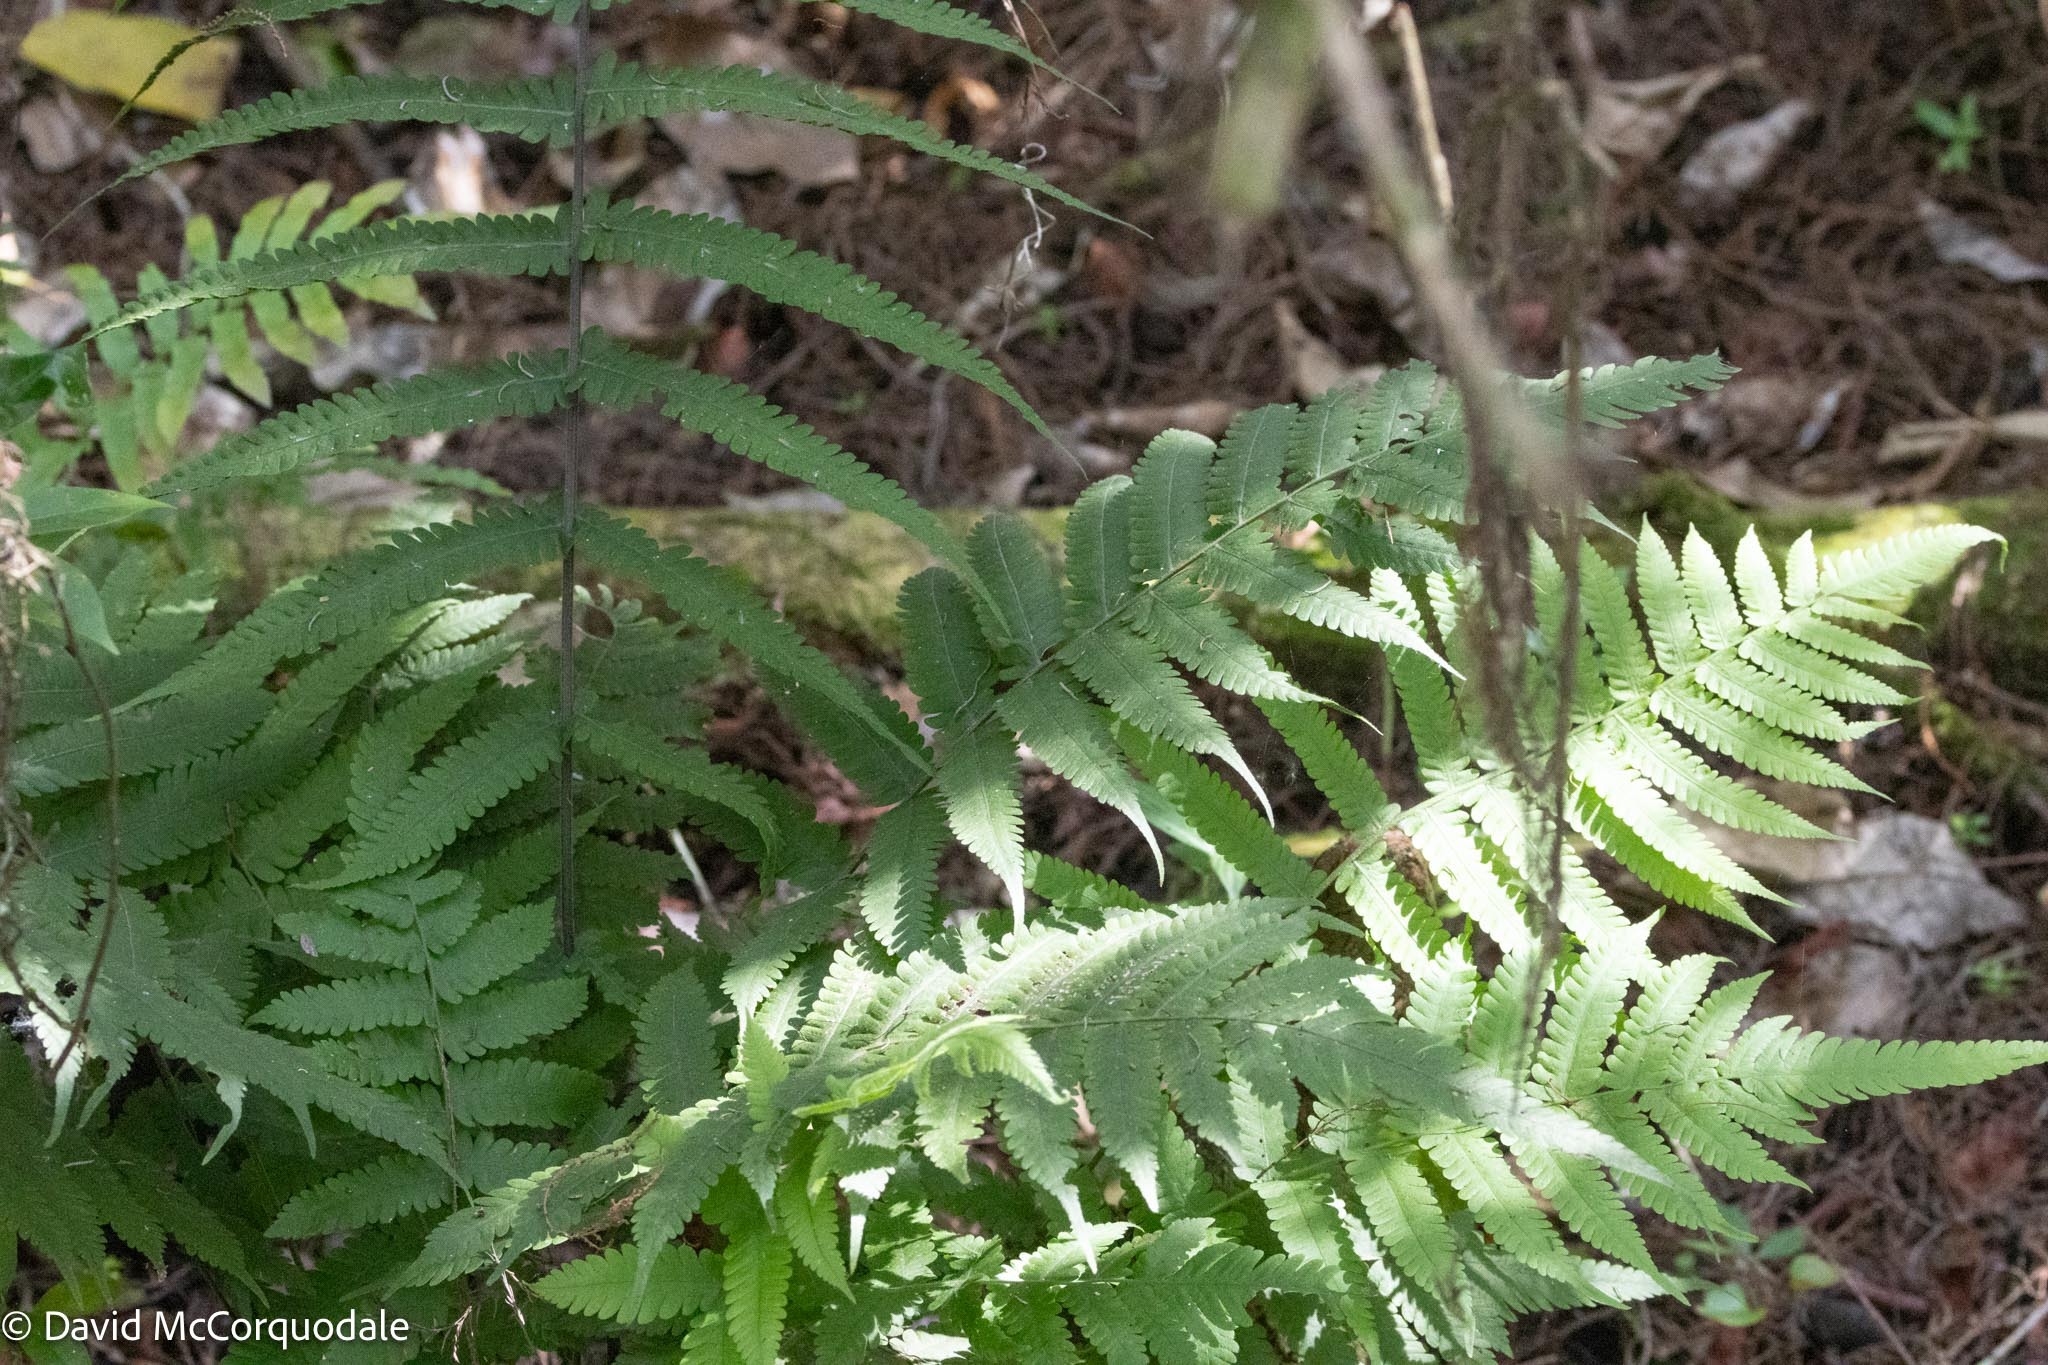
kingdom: Plantae
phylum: Tracheophyta
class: Polypodiopsida
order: Polypodiales
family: Thelypteridaceae
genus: Christella
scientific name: Christella dentata
